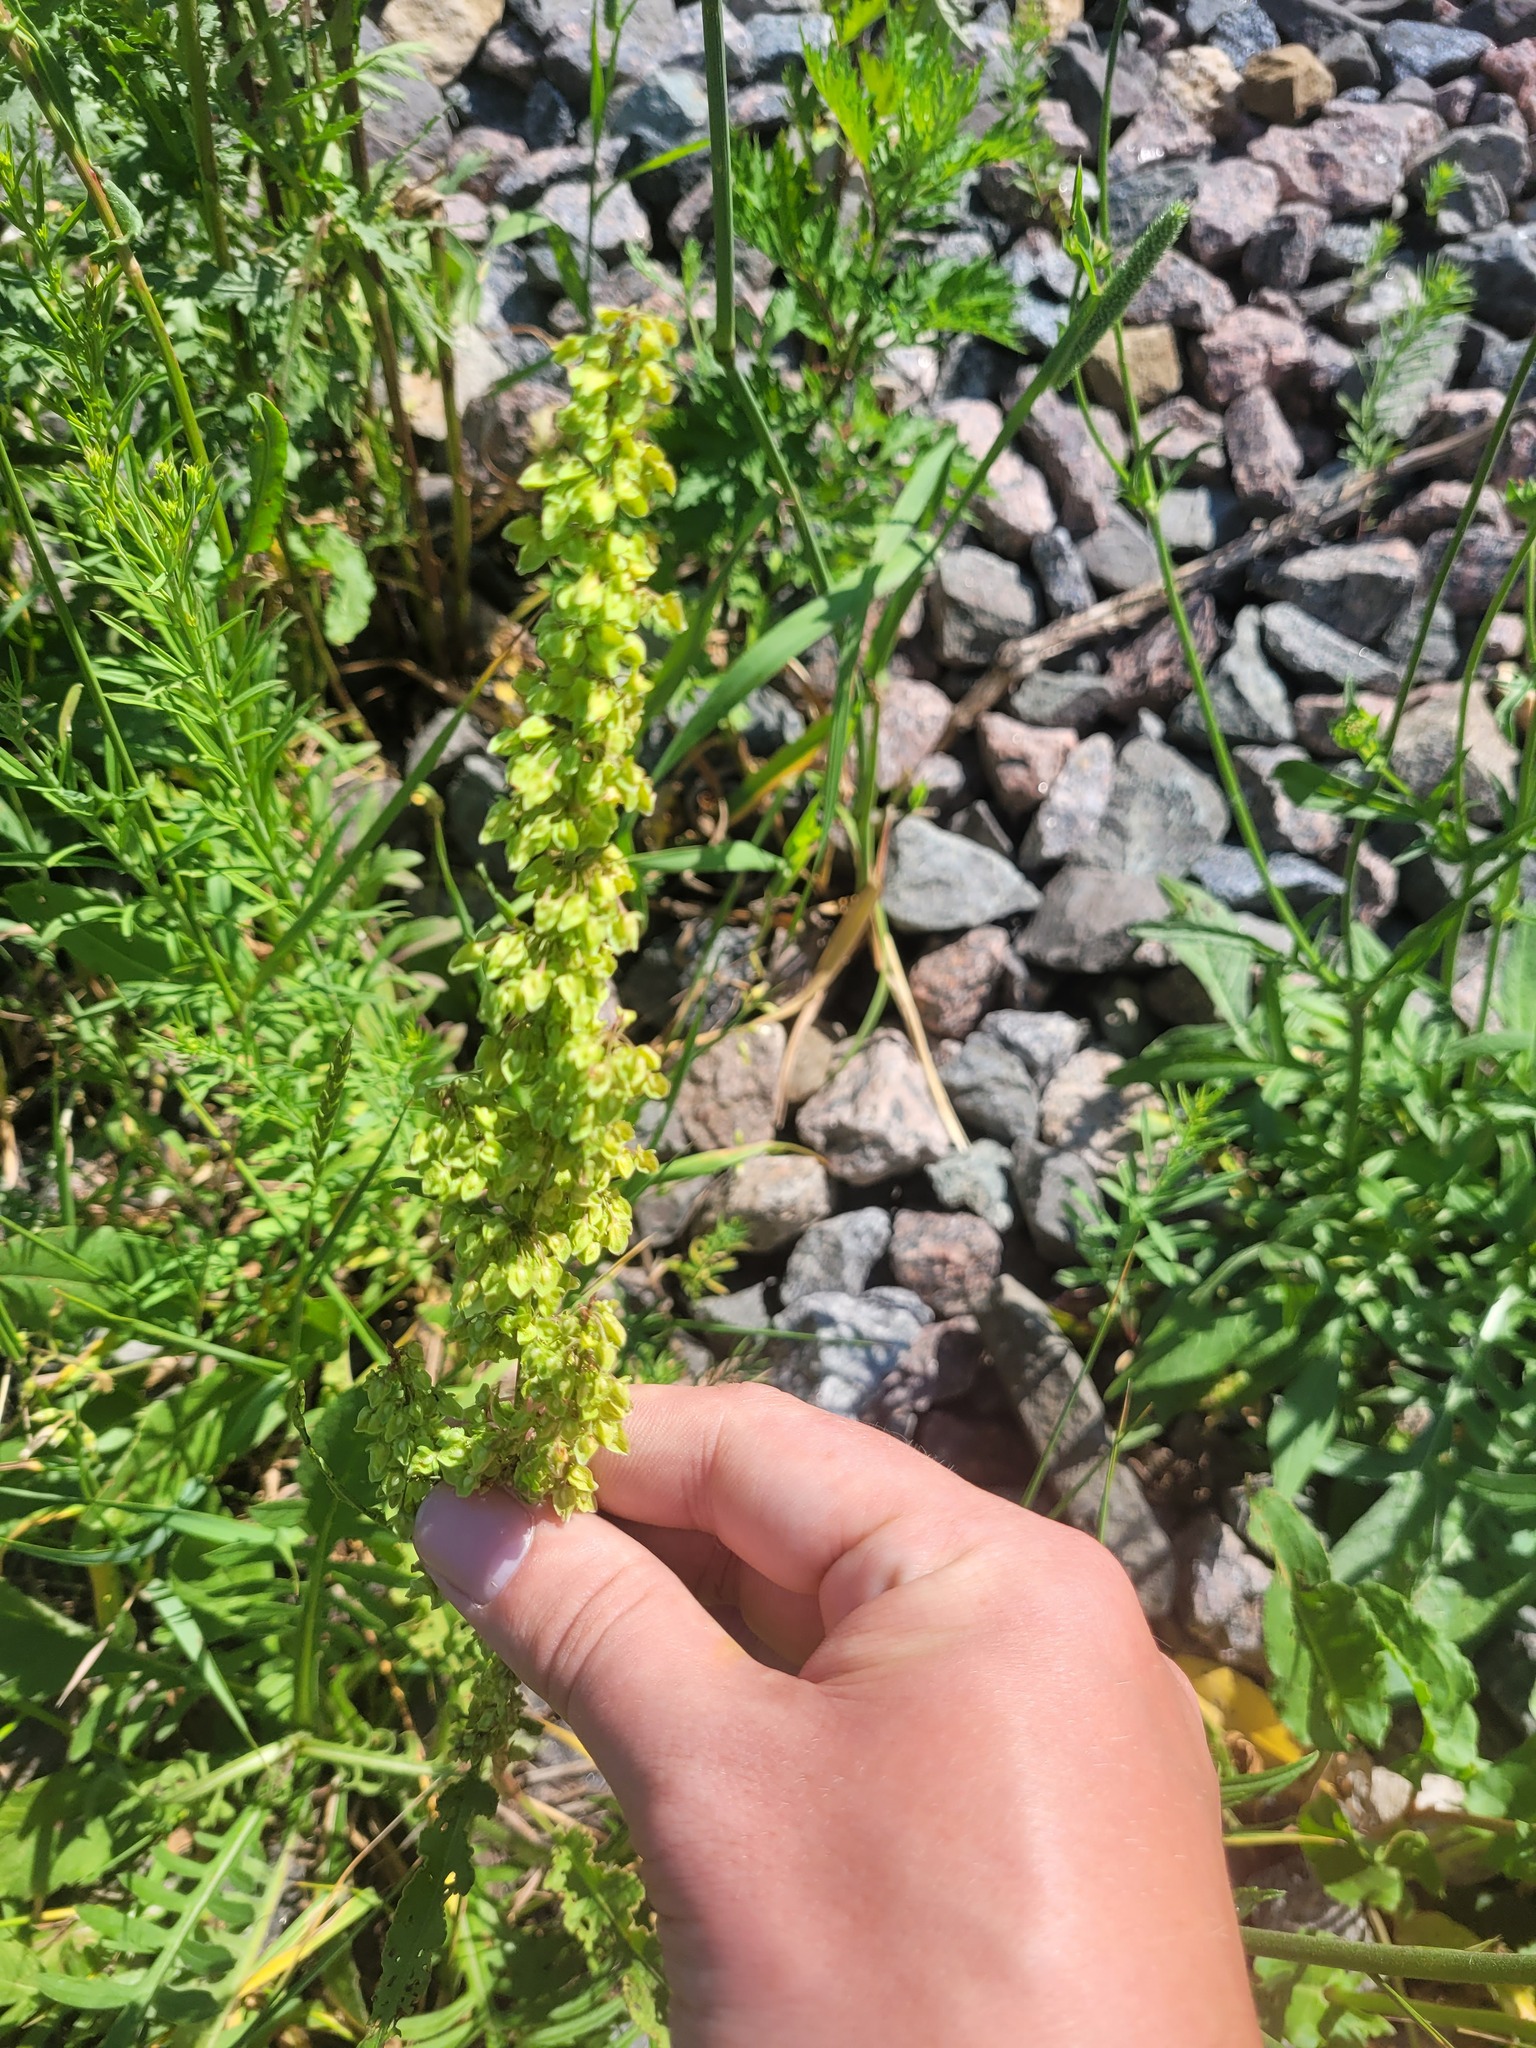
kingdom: Plantae
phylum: Tracheophyta
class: Magnoliopsida
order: Caryophyllales
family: Polygonaceae
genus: Rumex
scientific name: Rumex crispus
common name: Curled dock
